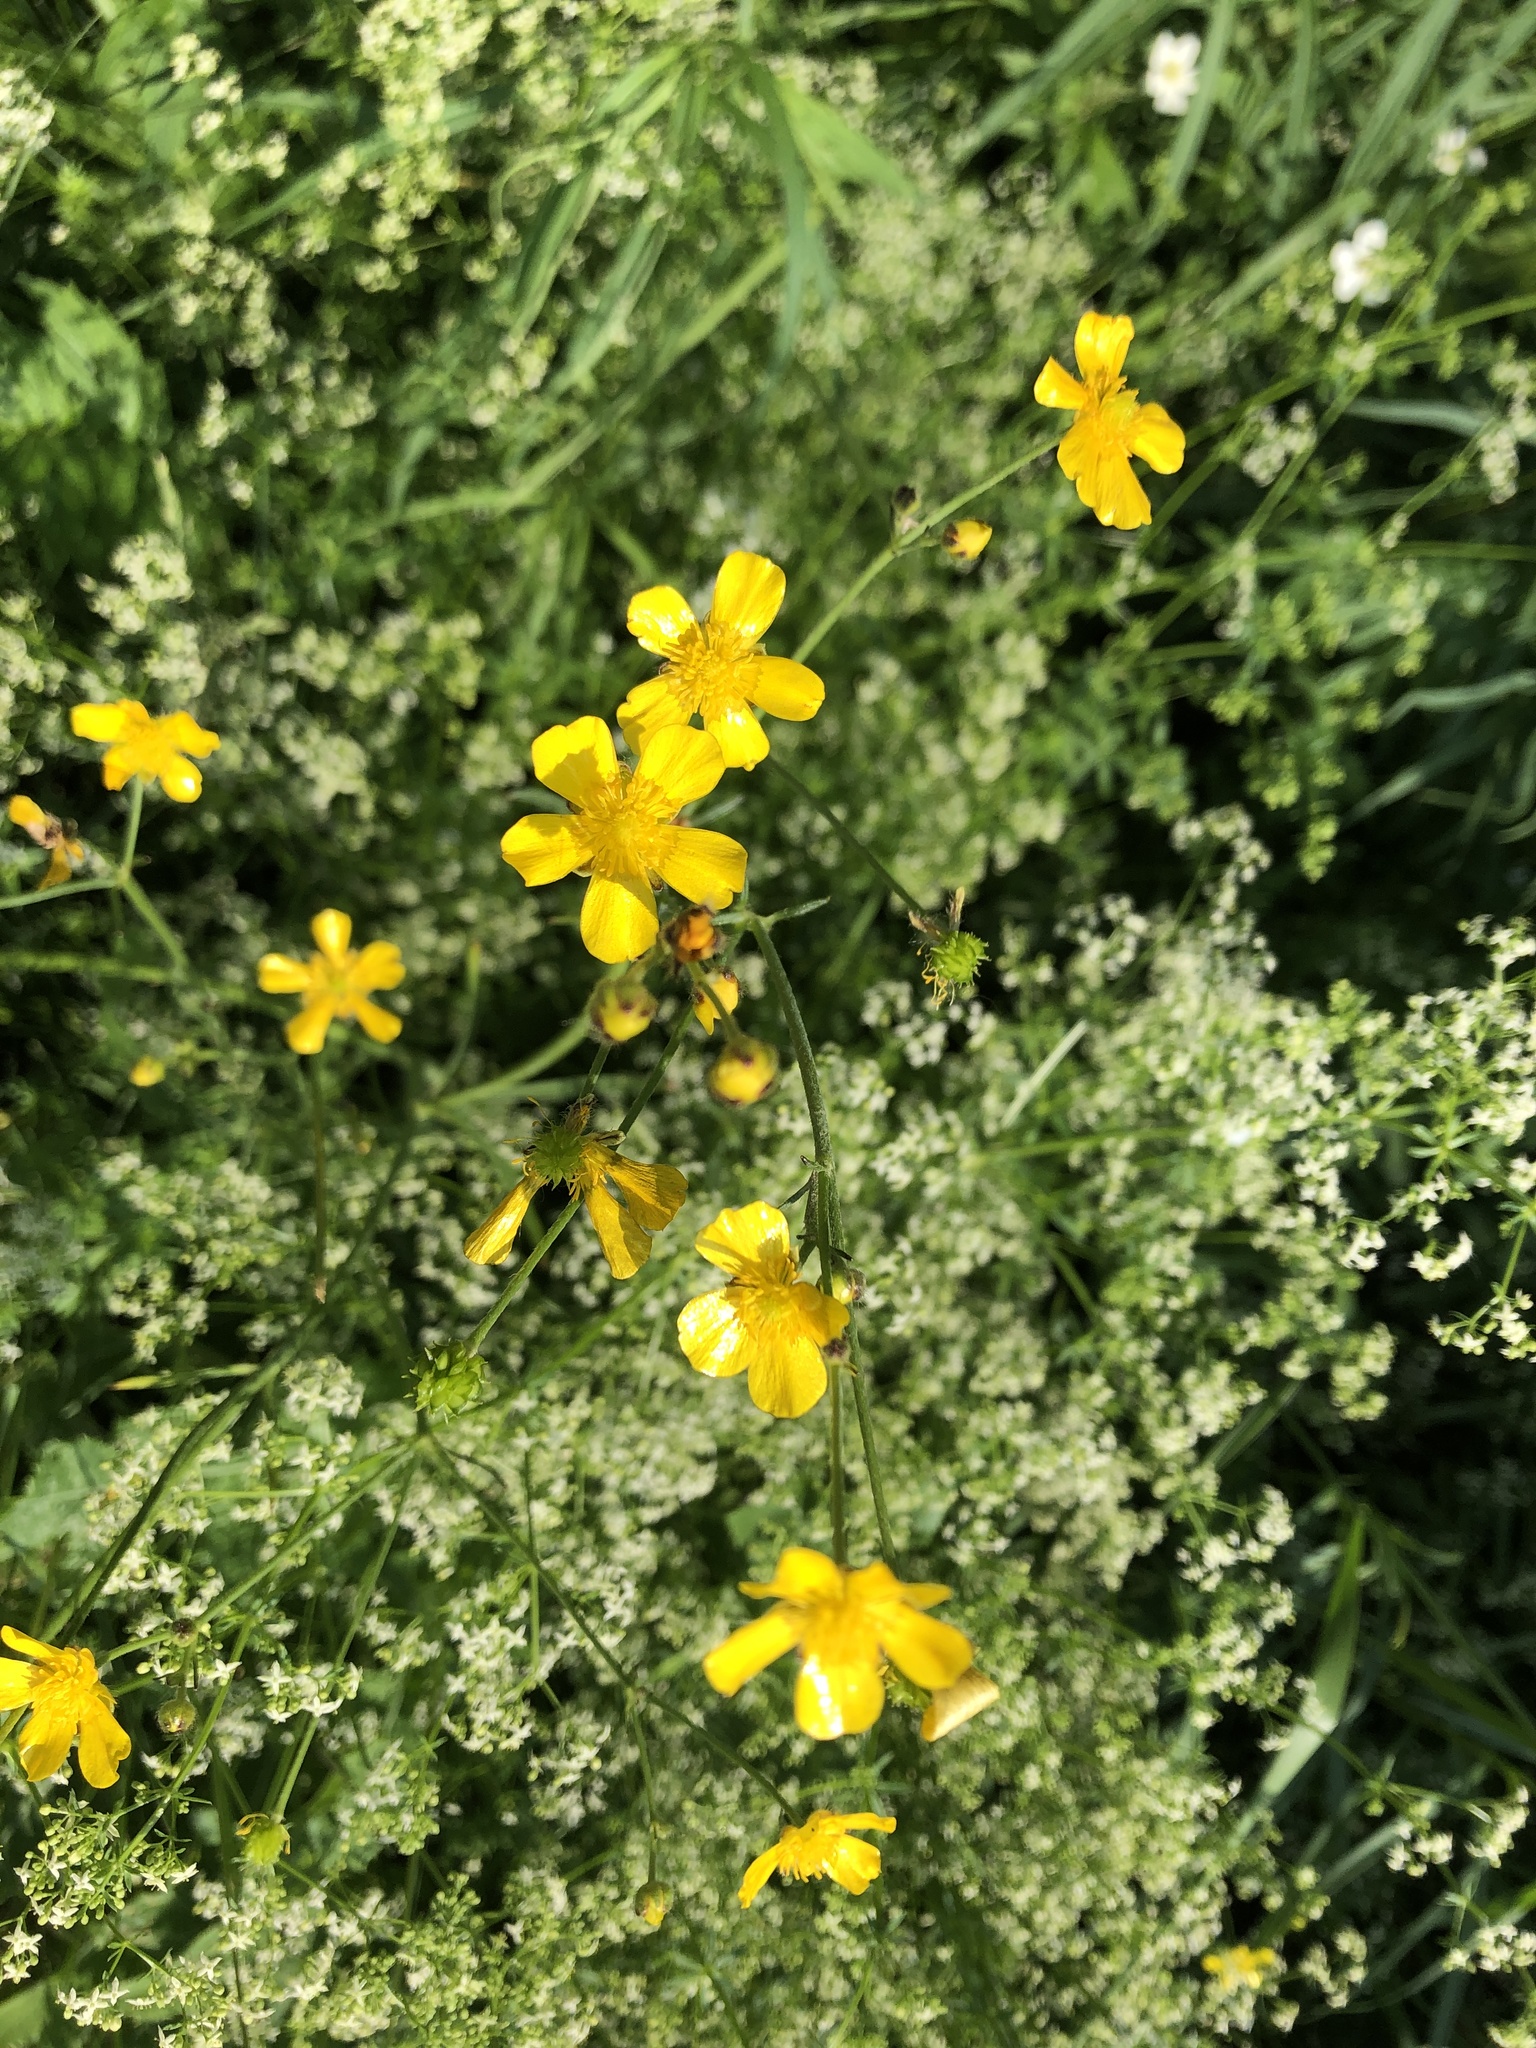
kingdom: Plantae
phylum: Tracheophyta
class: Magnoliopsida
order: Ranunculales
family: Ranunculaceae
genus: Ranunculus
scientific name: Ranunculus acris
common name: Meadow buttercup
